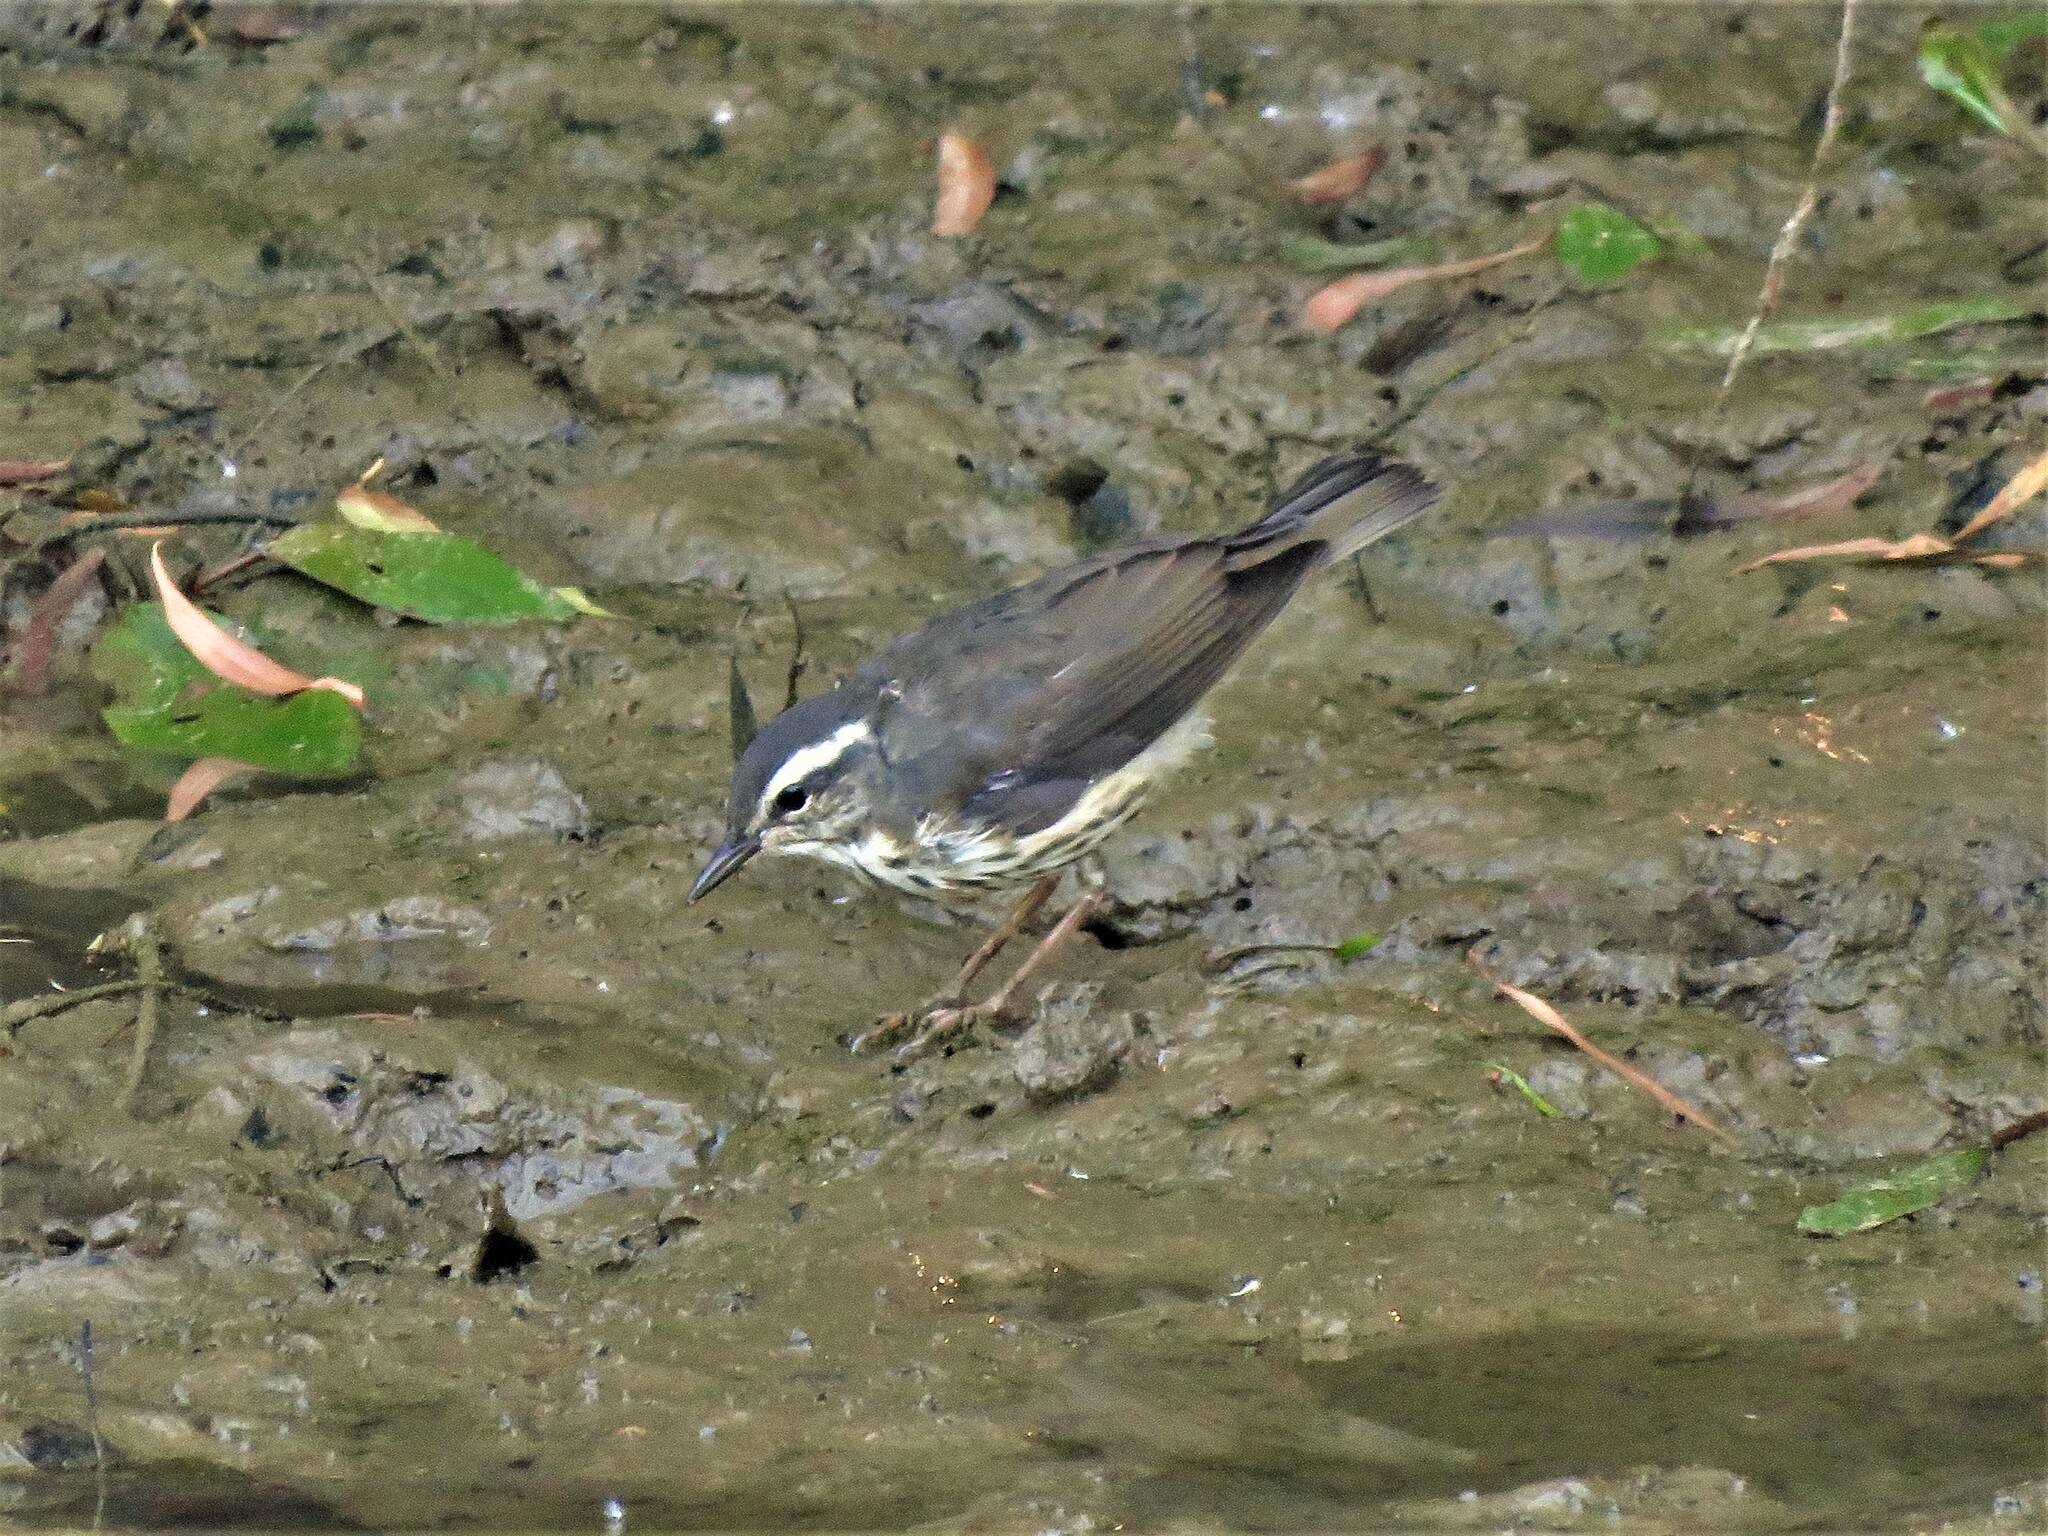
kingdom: Animalia
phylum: Chordata
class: Aves
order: Passeriformes
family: Parulidae
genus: Parkesia
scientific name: Parkesia motacilla
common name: Louisiana waterthrush
